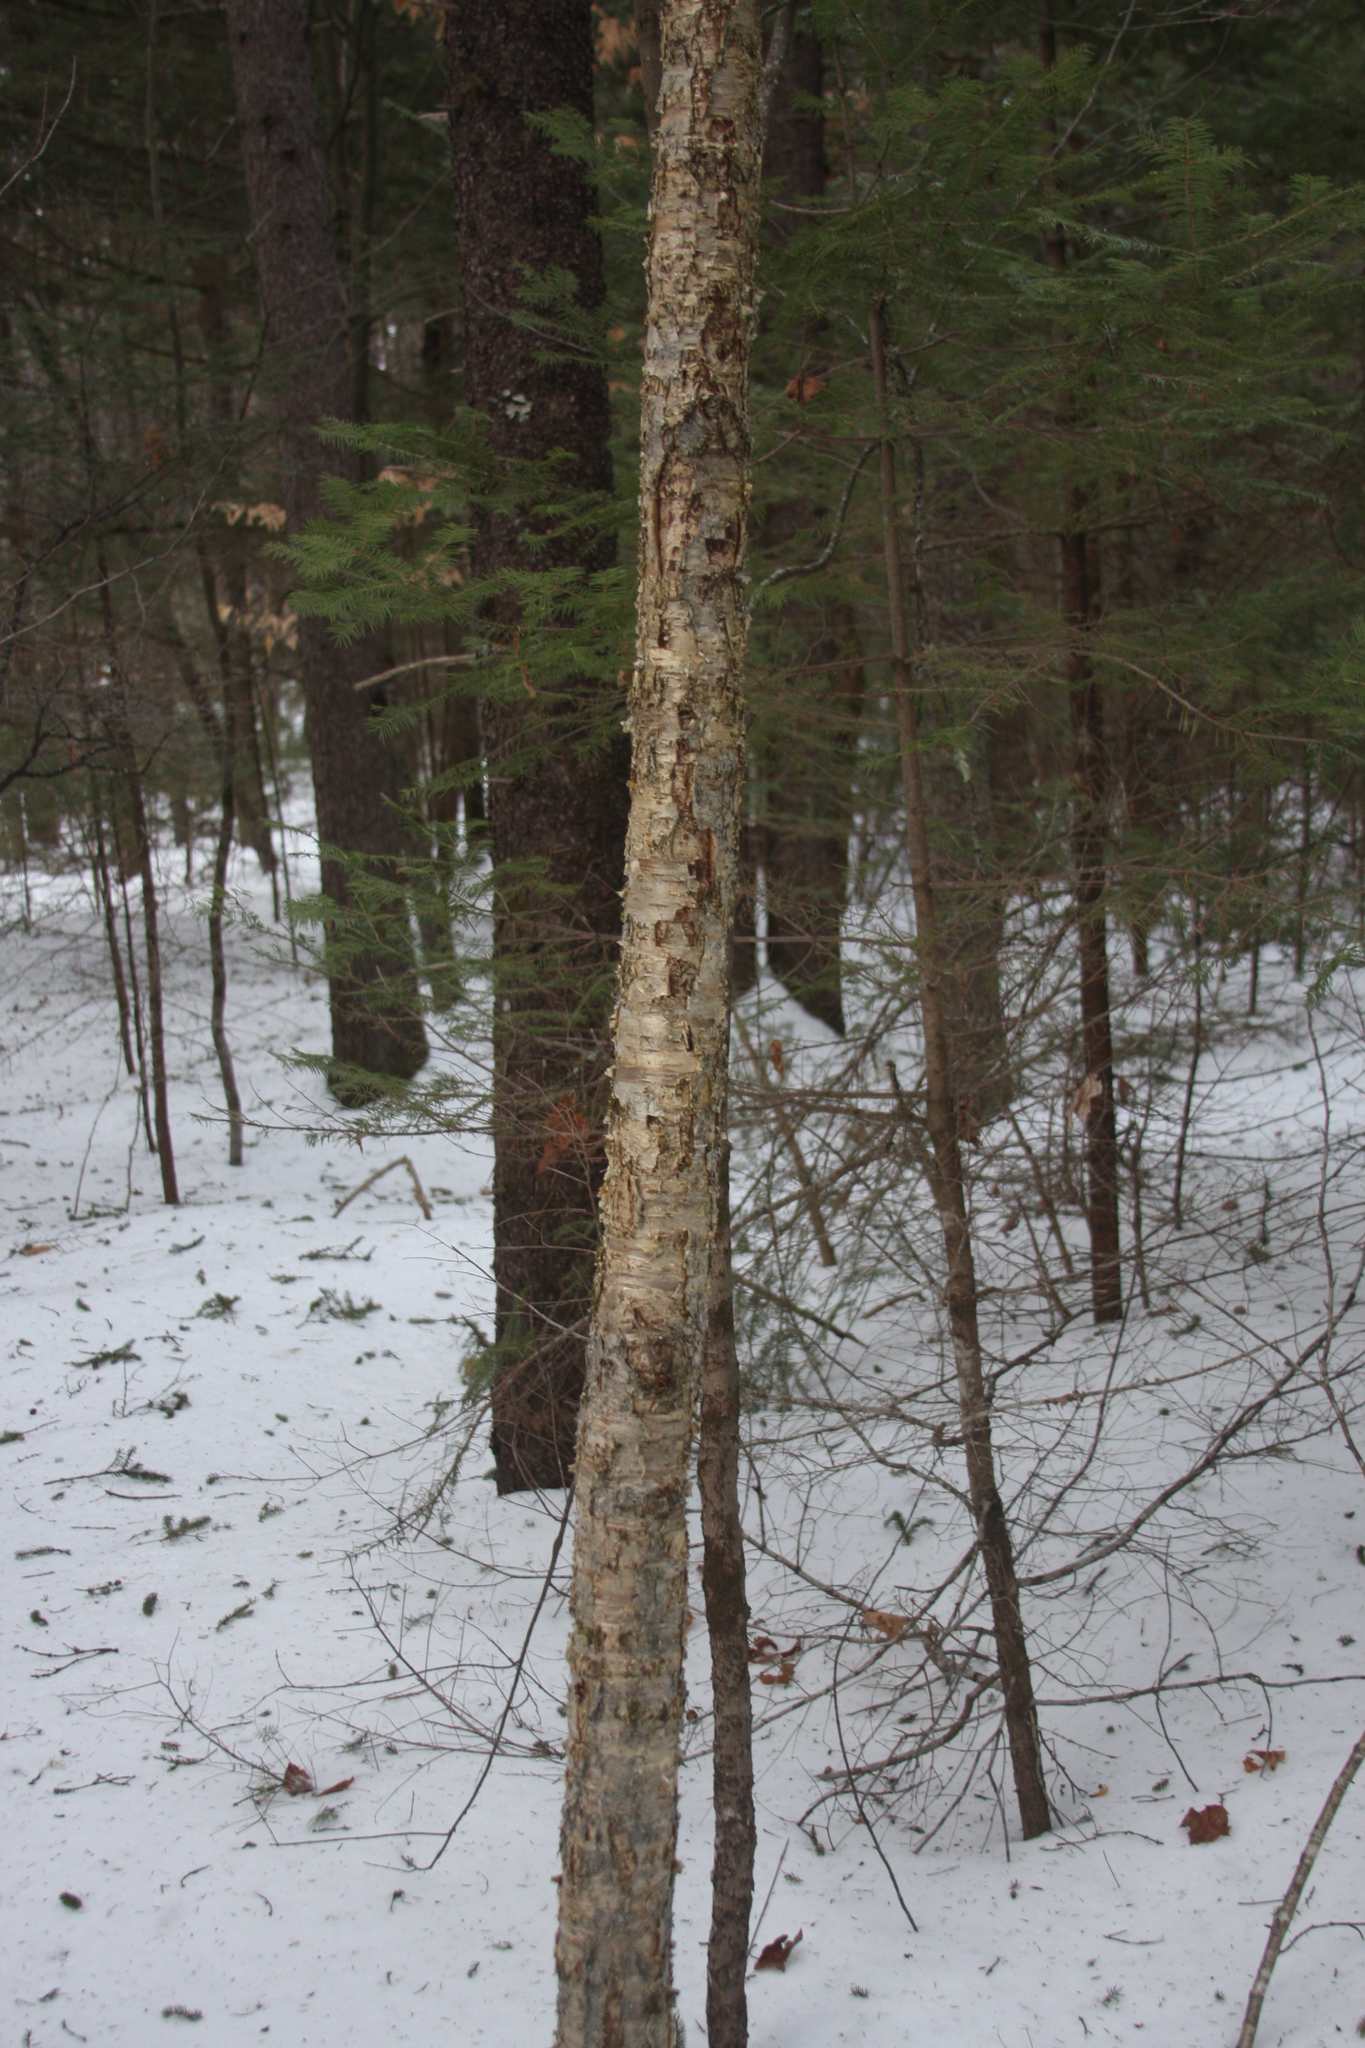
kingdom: Plantae
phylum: Tracheophyta
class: Magnoliopsida
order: Fagales
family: Betulaceae
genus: Betula
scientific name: Betula alleghaniensis
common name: Yellow birch
